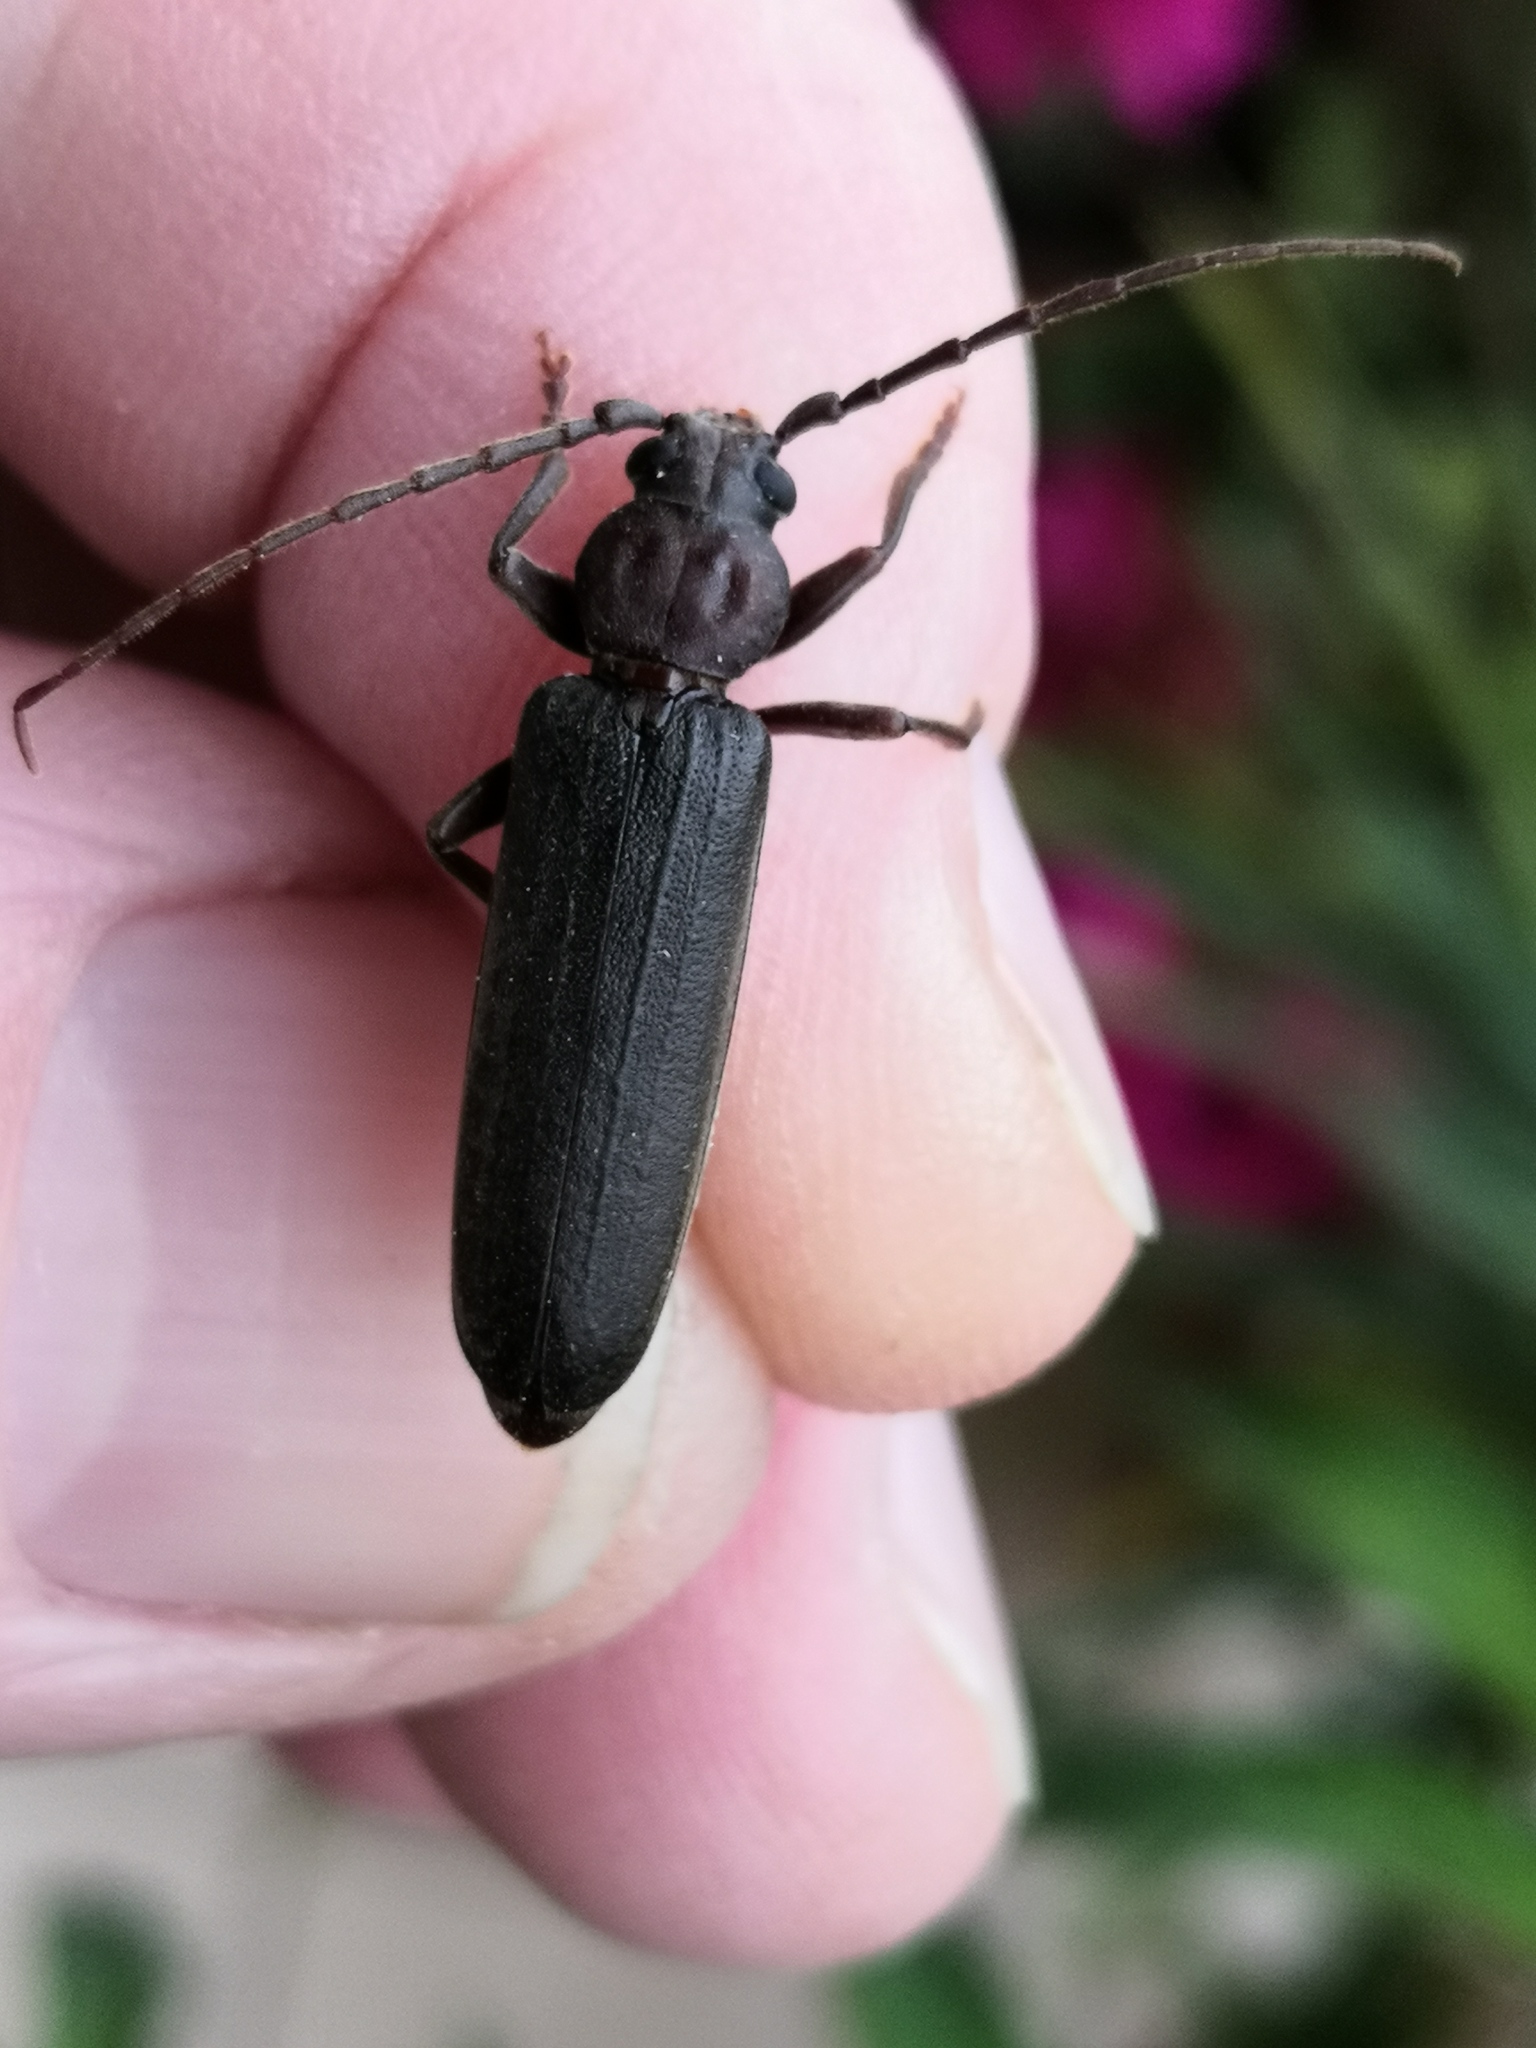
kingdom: Animalia
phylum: Arthropoda
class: Insecta
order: Coleoptera
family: Cerambycidae
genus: Arhopalus
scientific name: Arhopalus rusticus
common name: Rust pine borer
